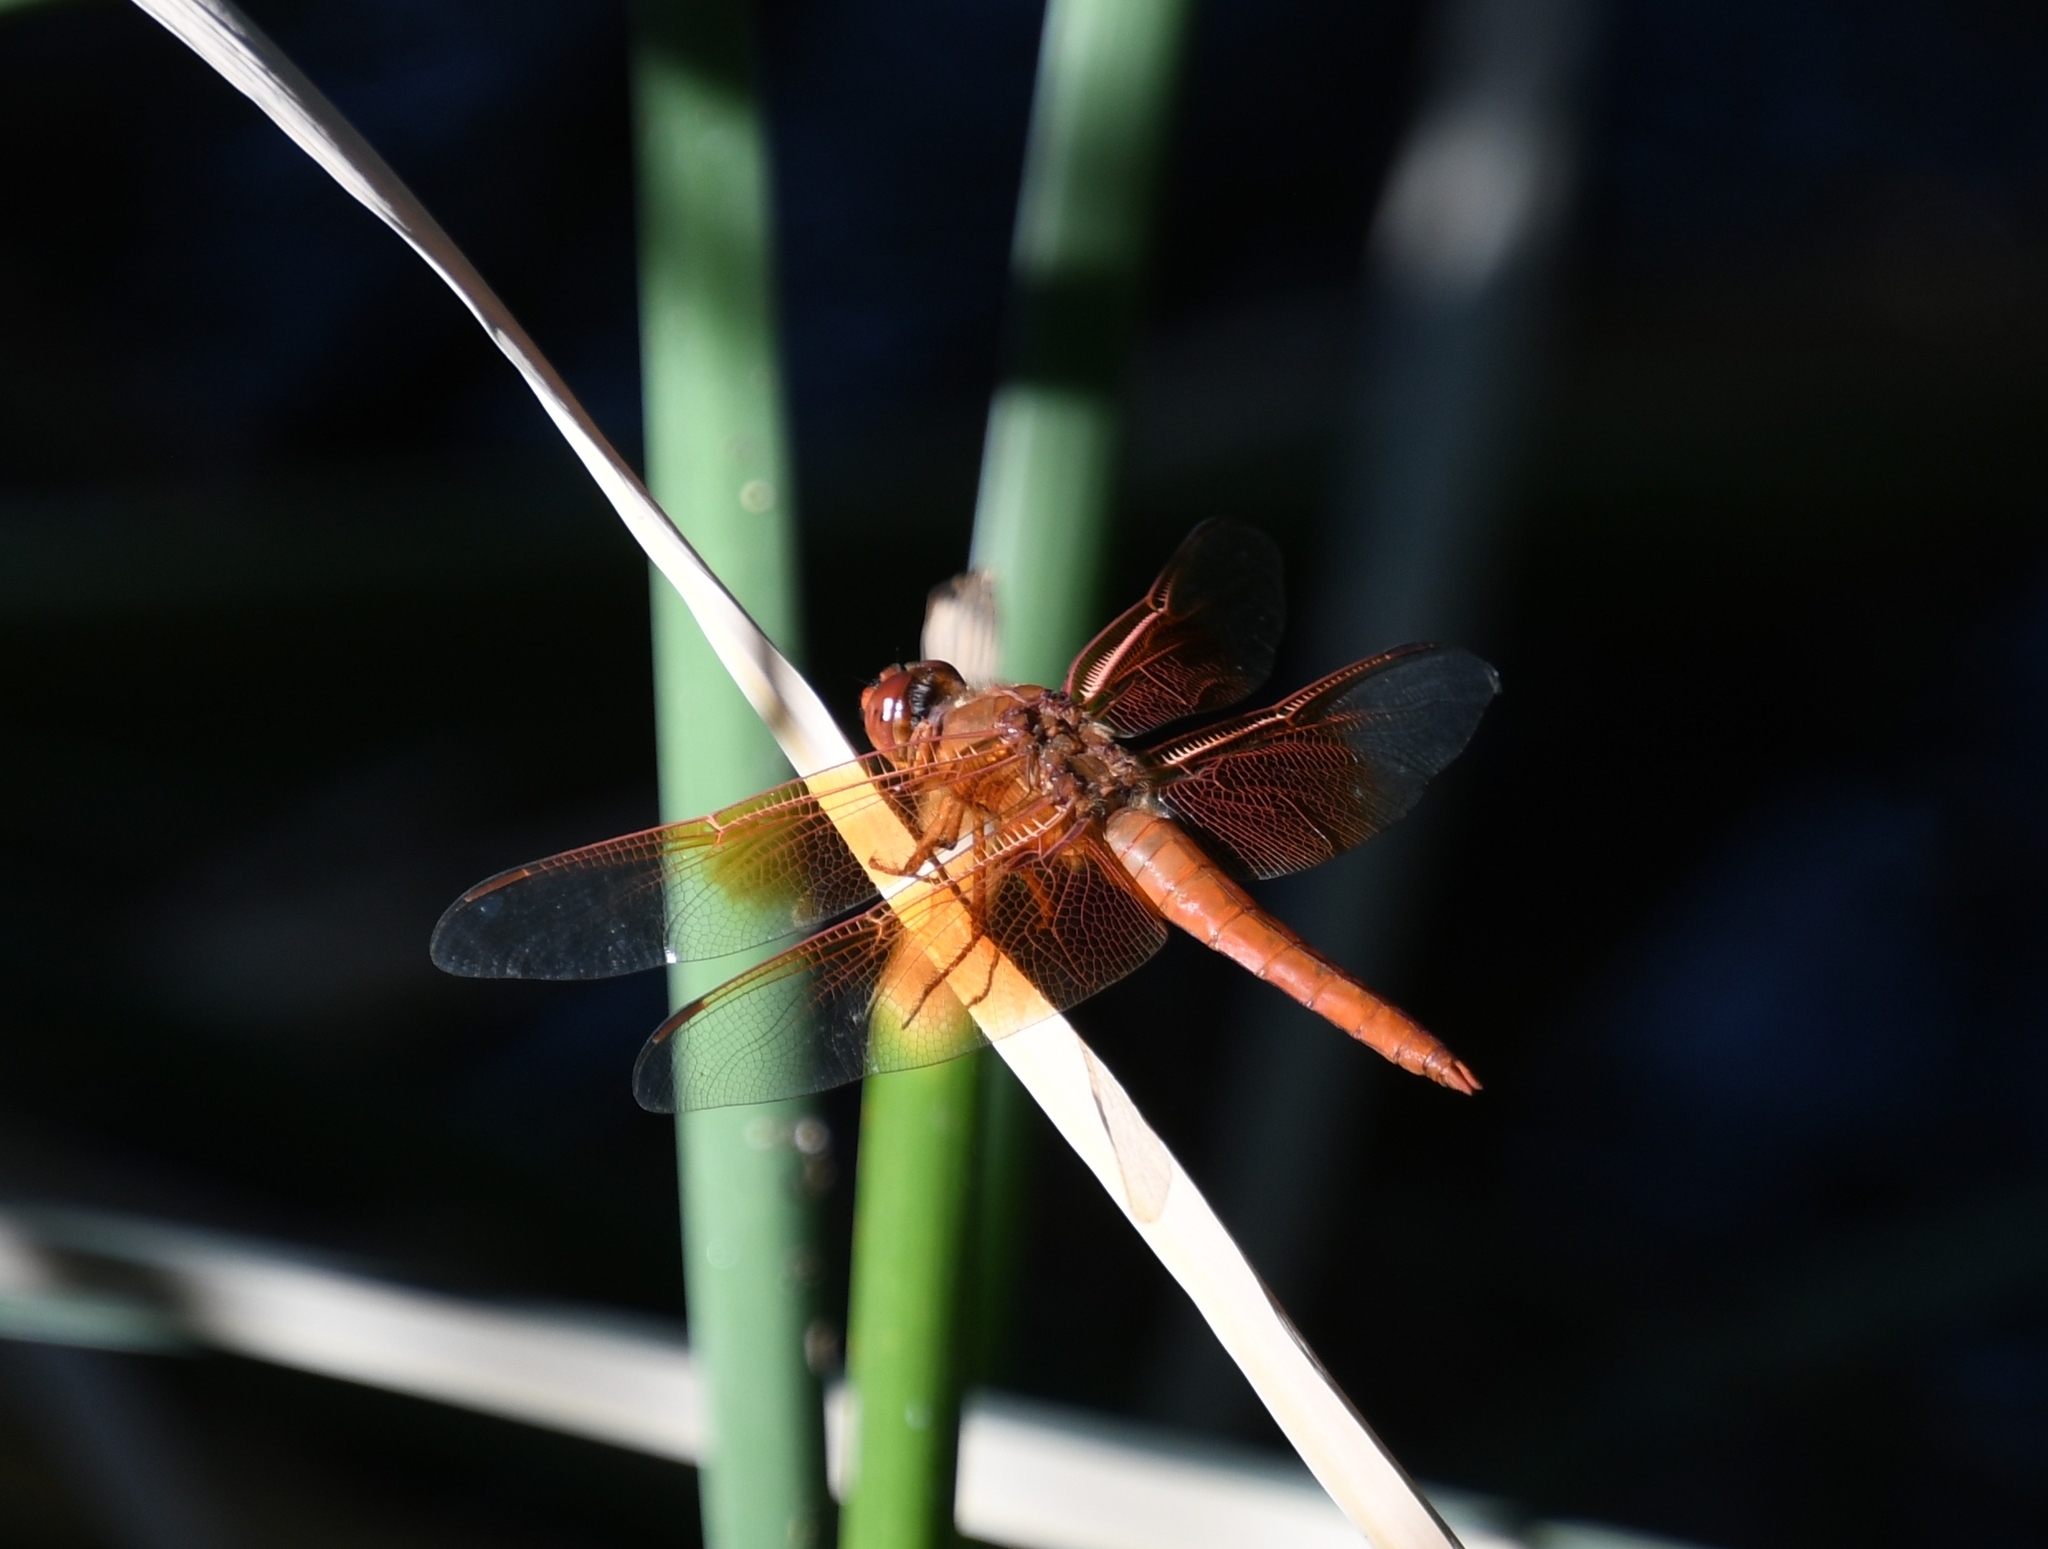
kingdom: Animalia
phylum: Arthropoda
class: Insecta
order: Odonata
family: Libellulidae
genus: Libellula
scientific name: Libellula saturata
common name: Flame skimmer
